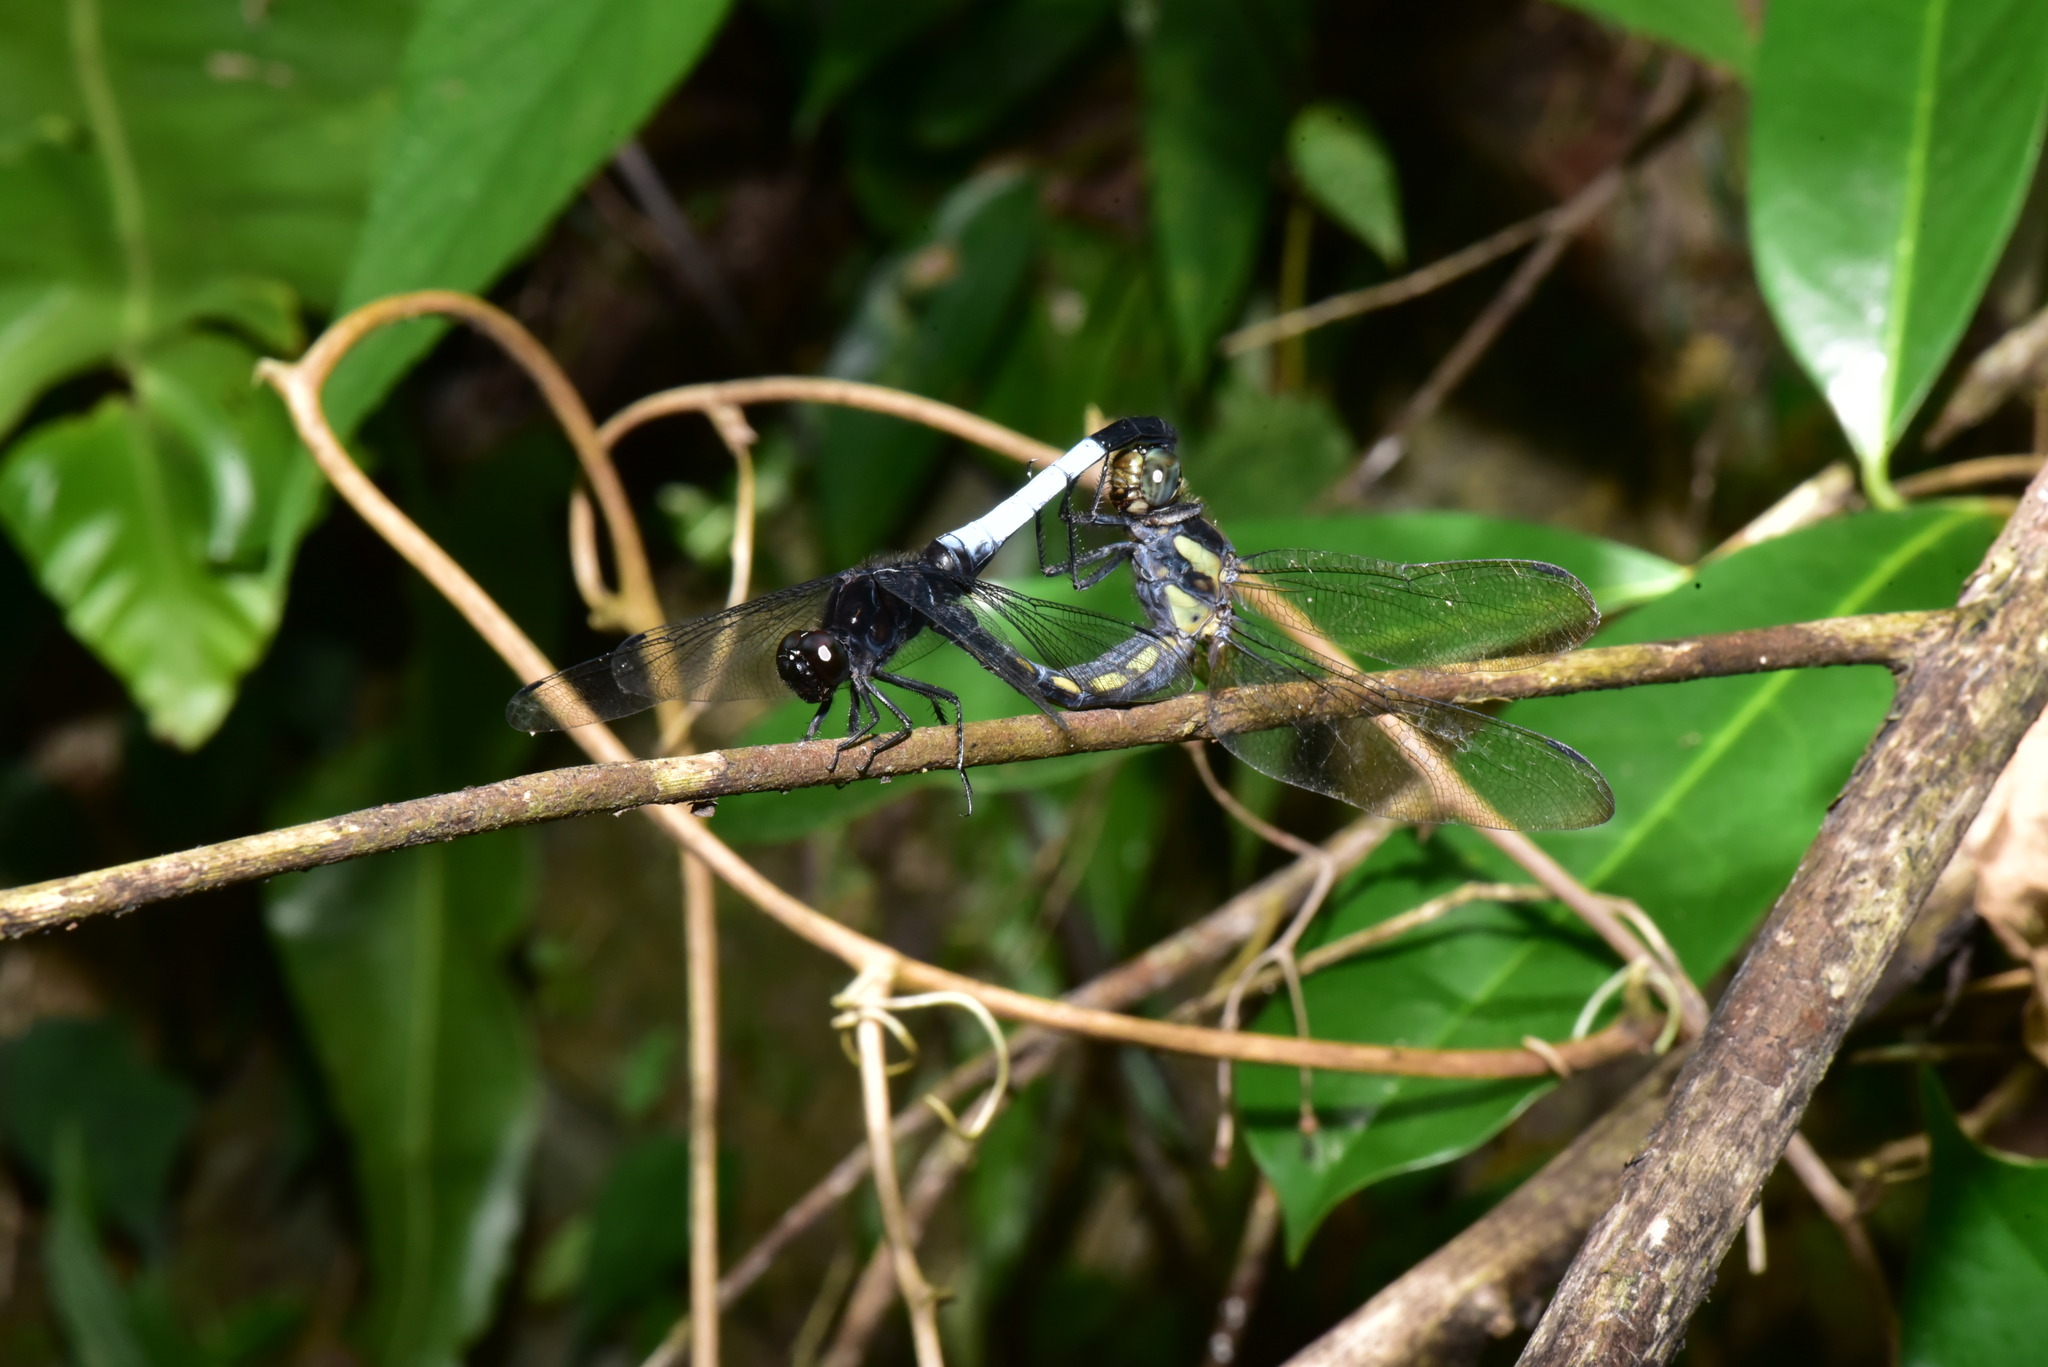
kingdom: Animalia
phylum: Arthropoda
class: Insecta
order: Odonata
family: Libellulidae
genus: Orthetrum
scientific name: Orthetrum triangulare
